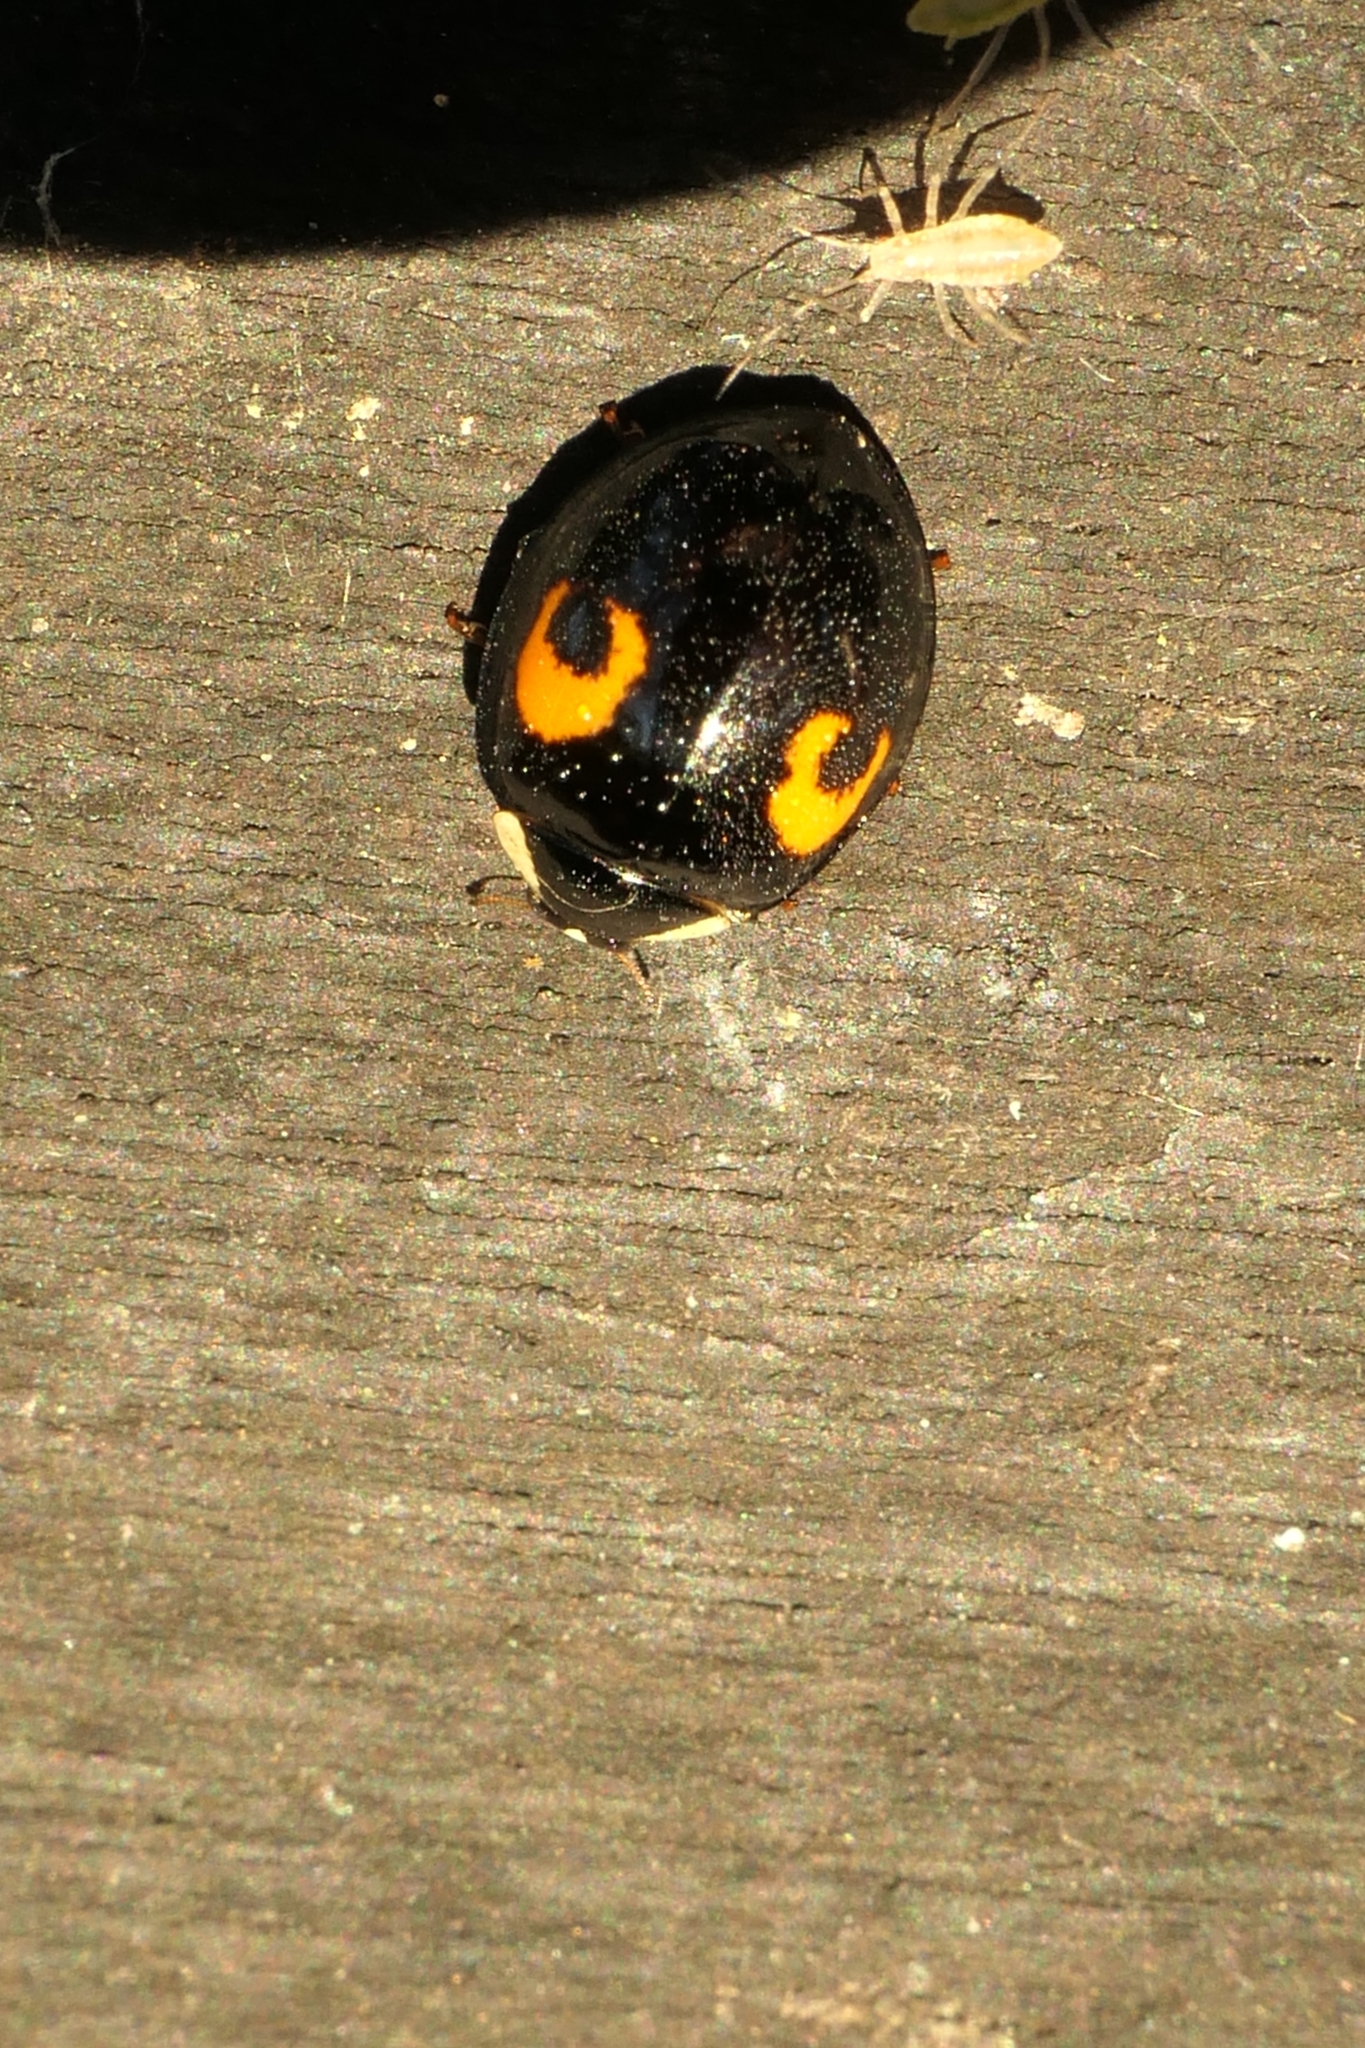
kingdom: Animalia
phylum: Arthropoda
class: Insecta
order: Coleoptera
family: Coccinellidae
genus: Harmonia
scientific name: Harmonia axyridis
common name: Harlequin ladybird
